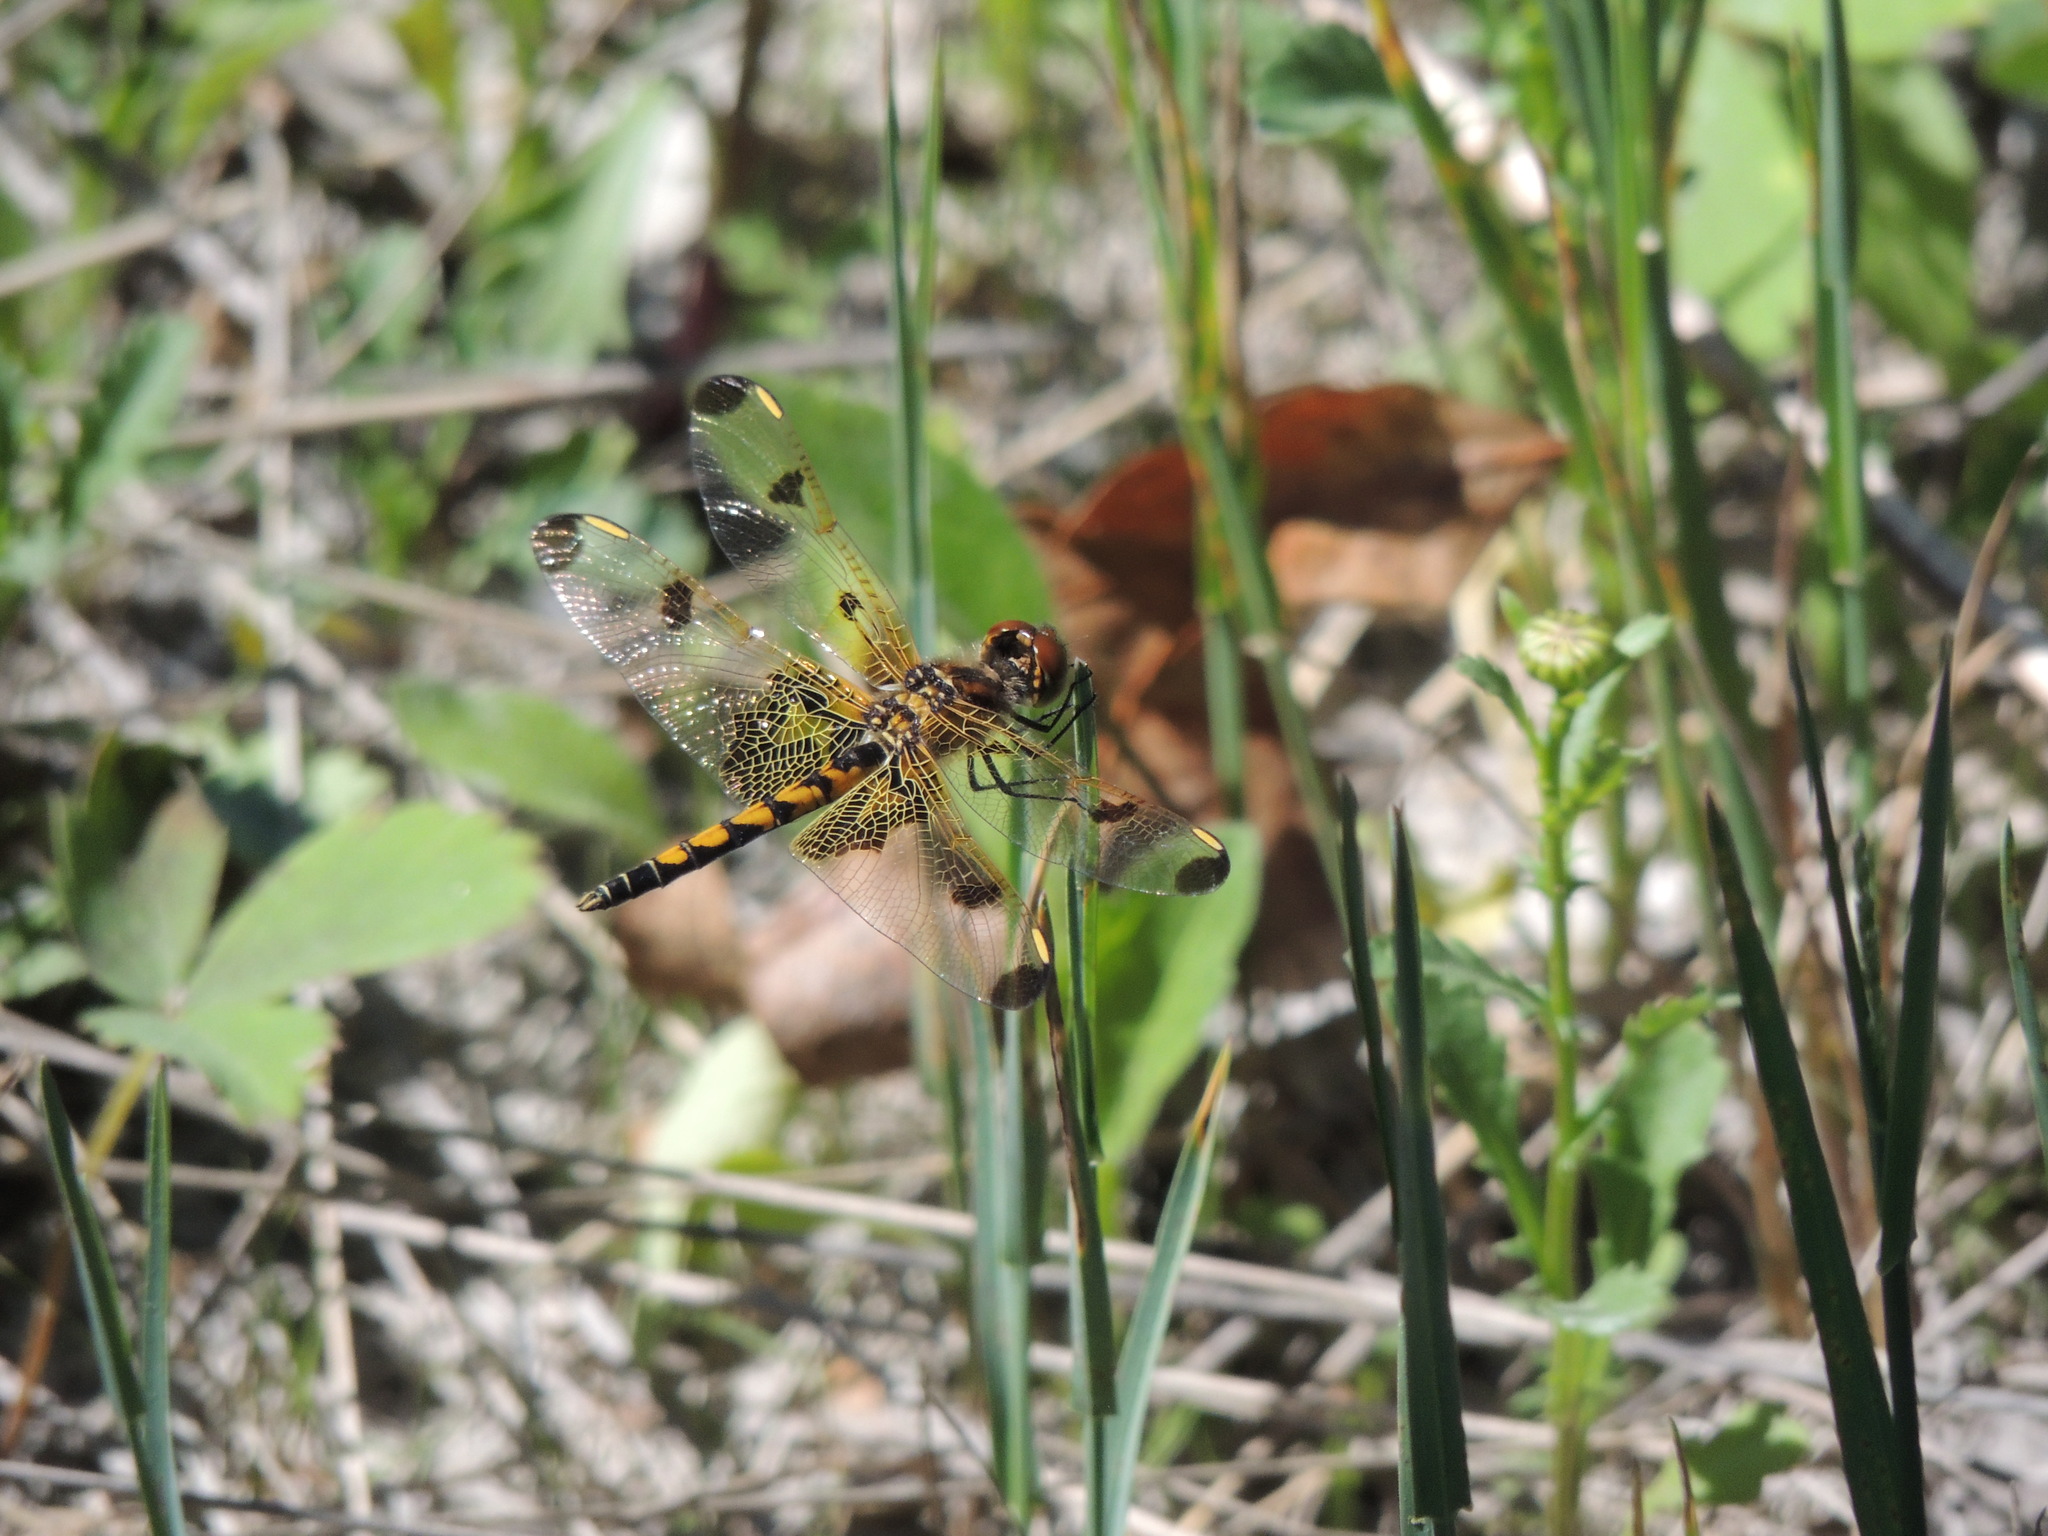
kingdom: Animalia
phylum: Arthropoda
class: Insecta
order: Odonata
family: Libellulidae
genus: Celithemis
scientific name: Celithemis elisa
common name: Calico pennant
